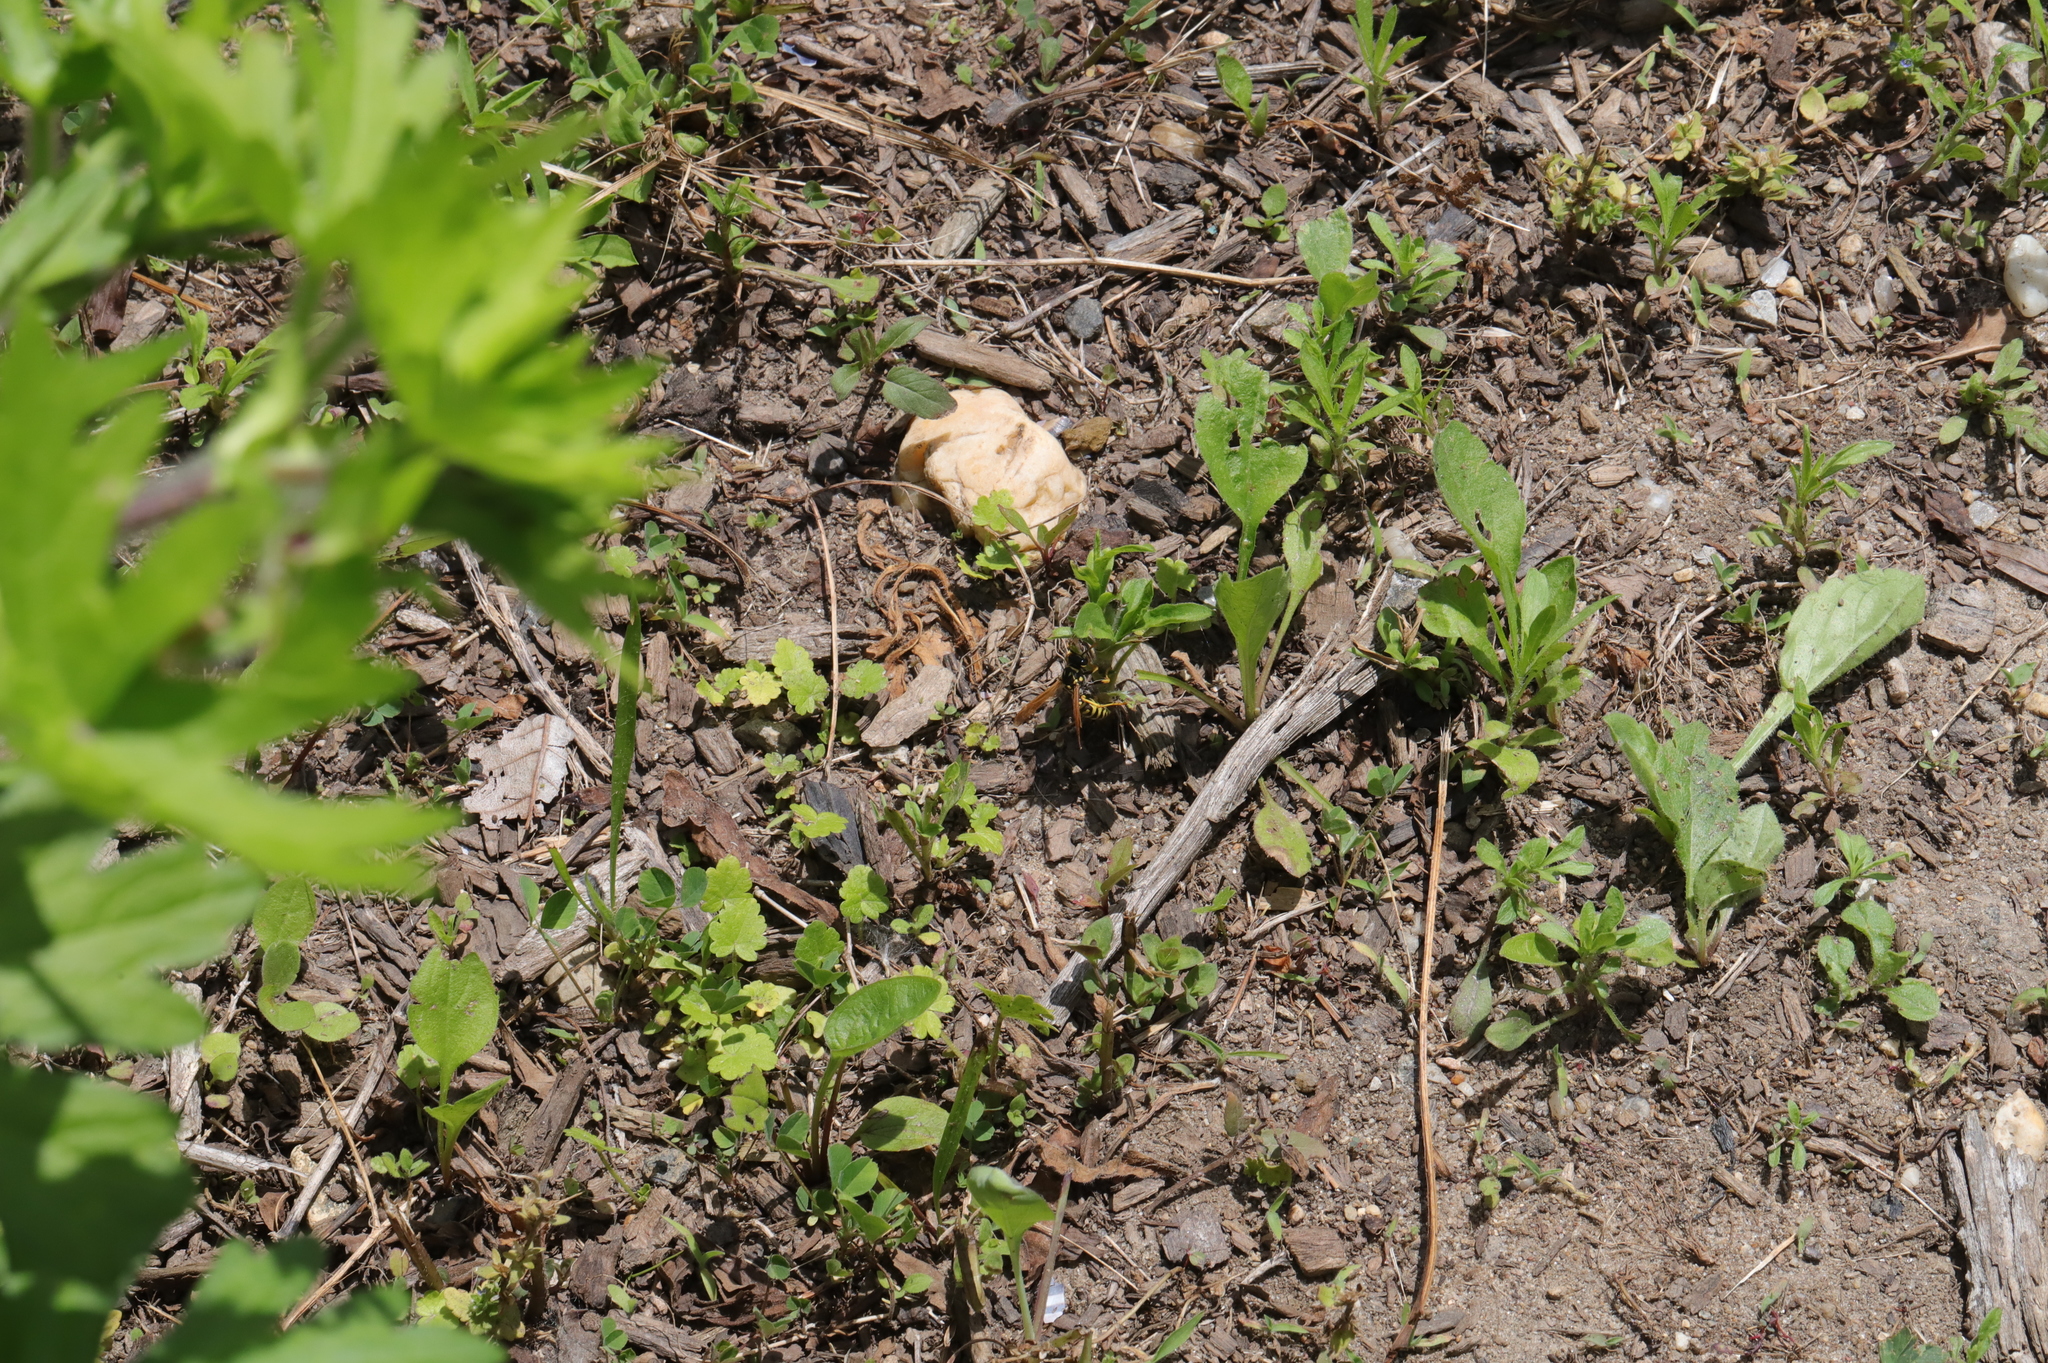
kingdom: Animalia
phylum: Arthropoda
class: Insecta
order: Hymenoptera
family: Eumenidae
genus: Polistes
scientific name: Polistes dominula
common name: Paper wasp
